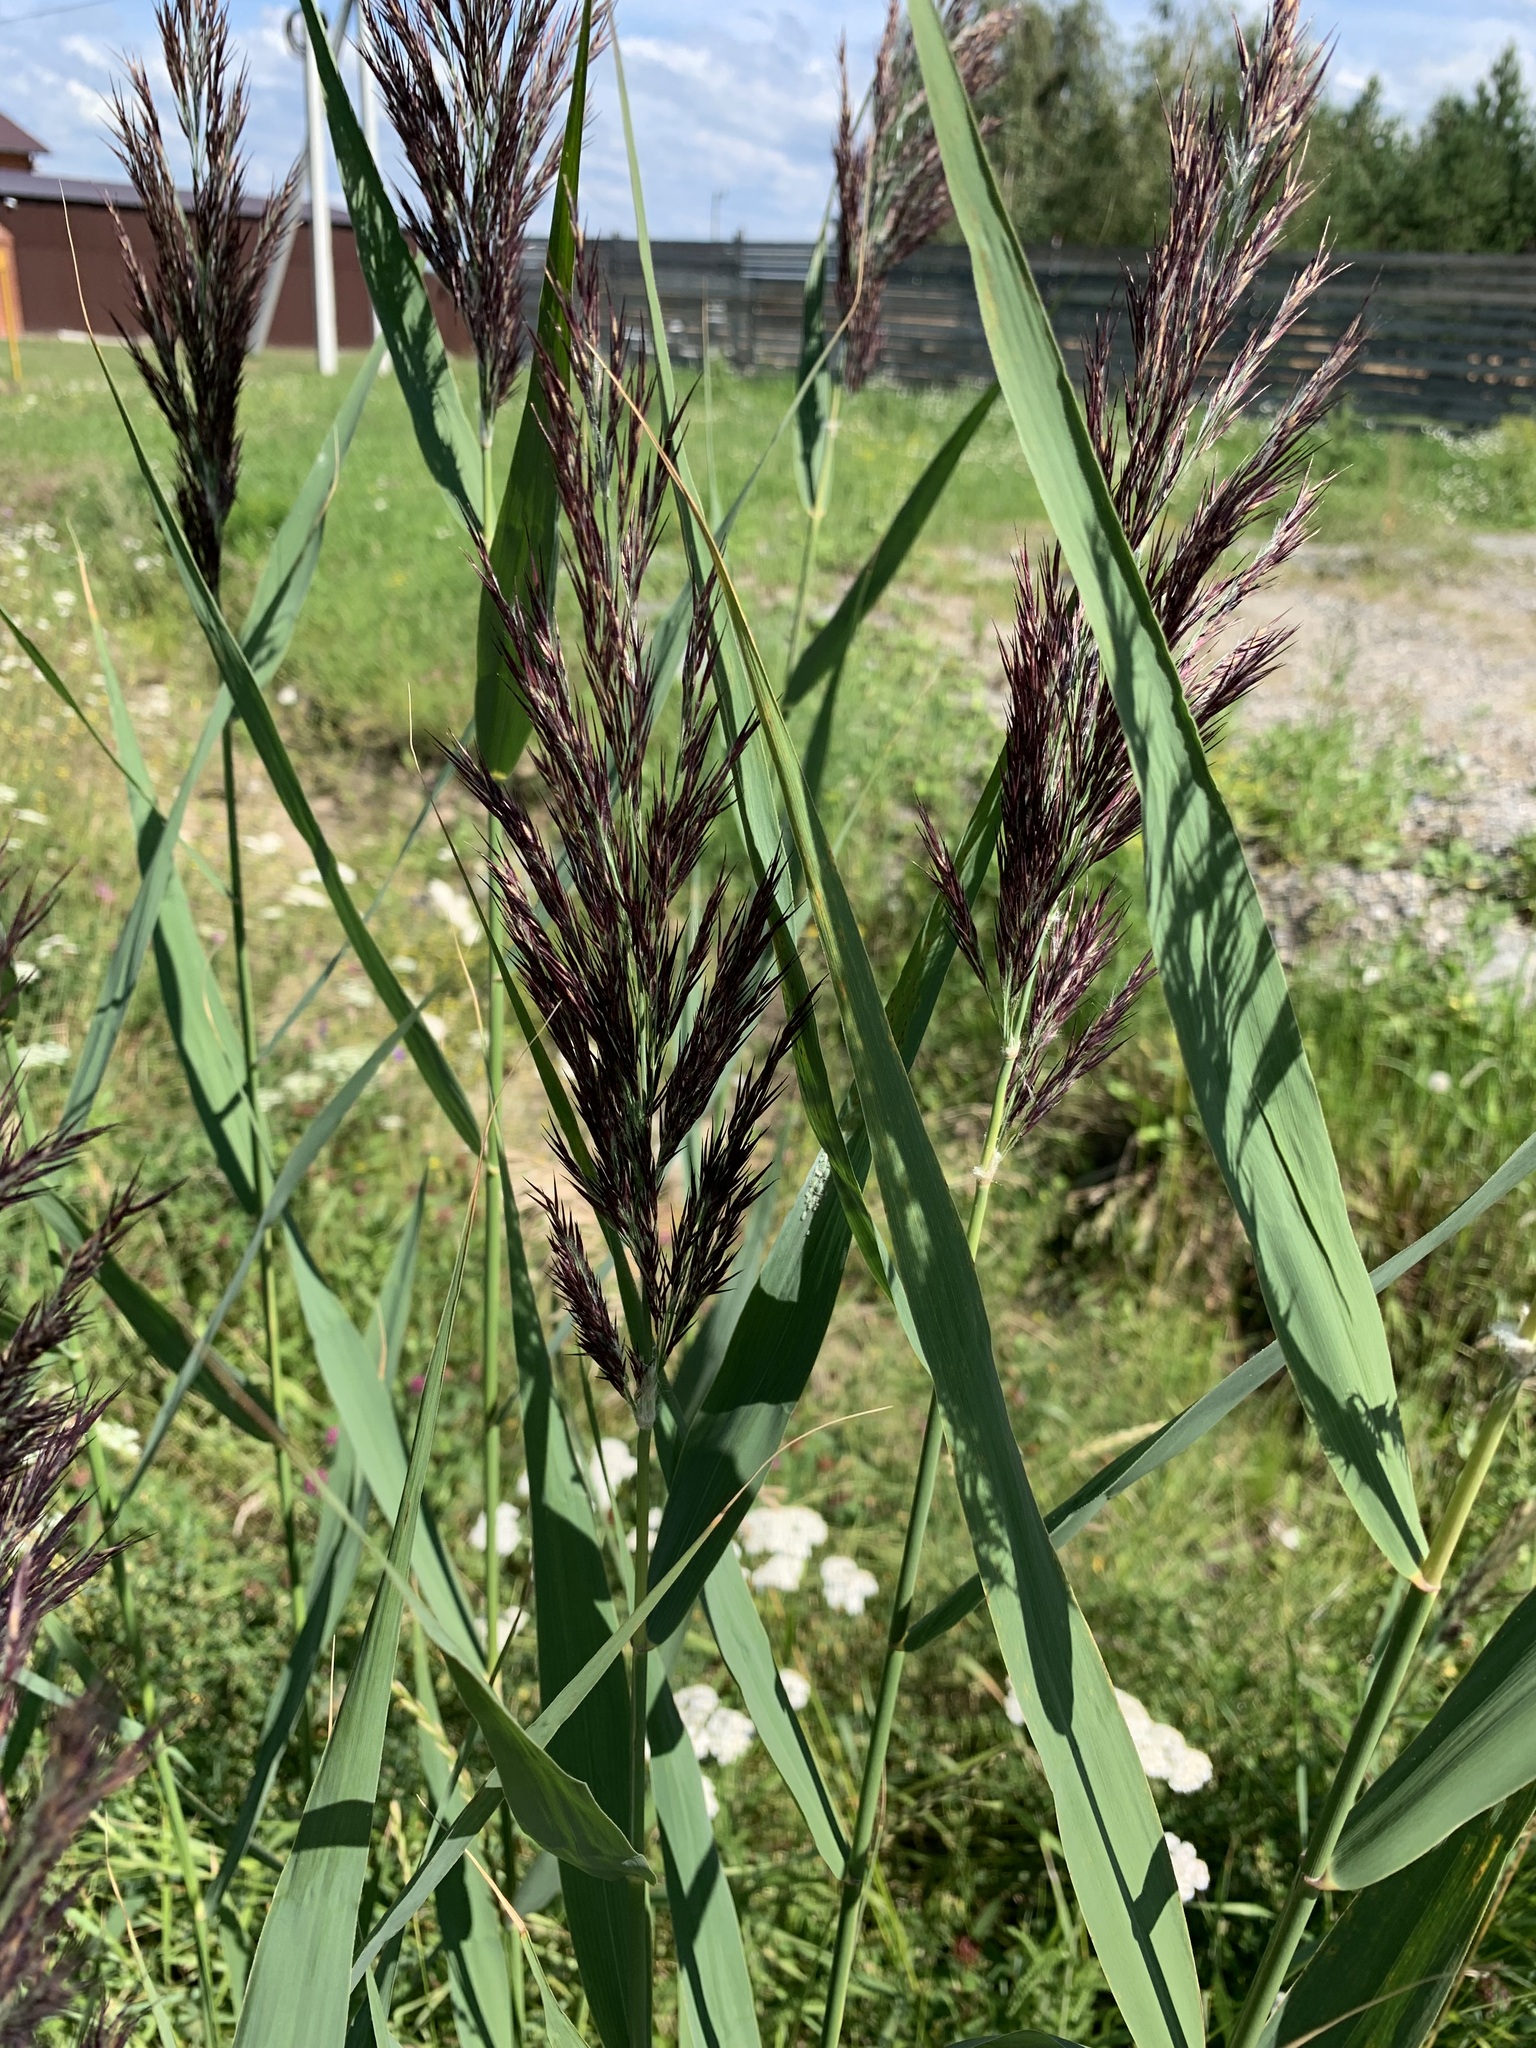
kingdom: Plantae
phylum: Tracheophyta
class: Liliopsida
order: Poales
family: Poaceae
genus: Phragmites
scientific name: Phragmites australis
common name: Common reed
